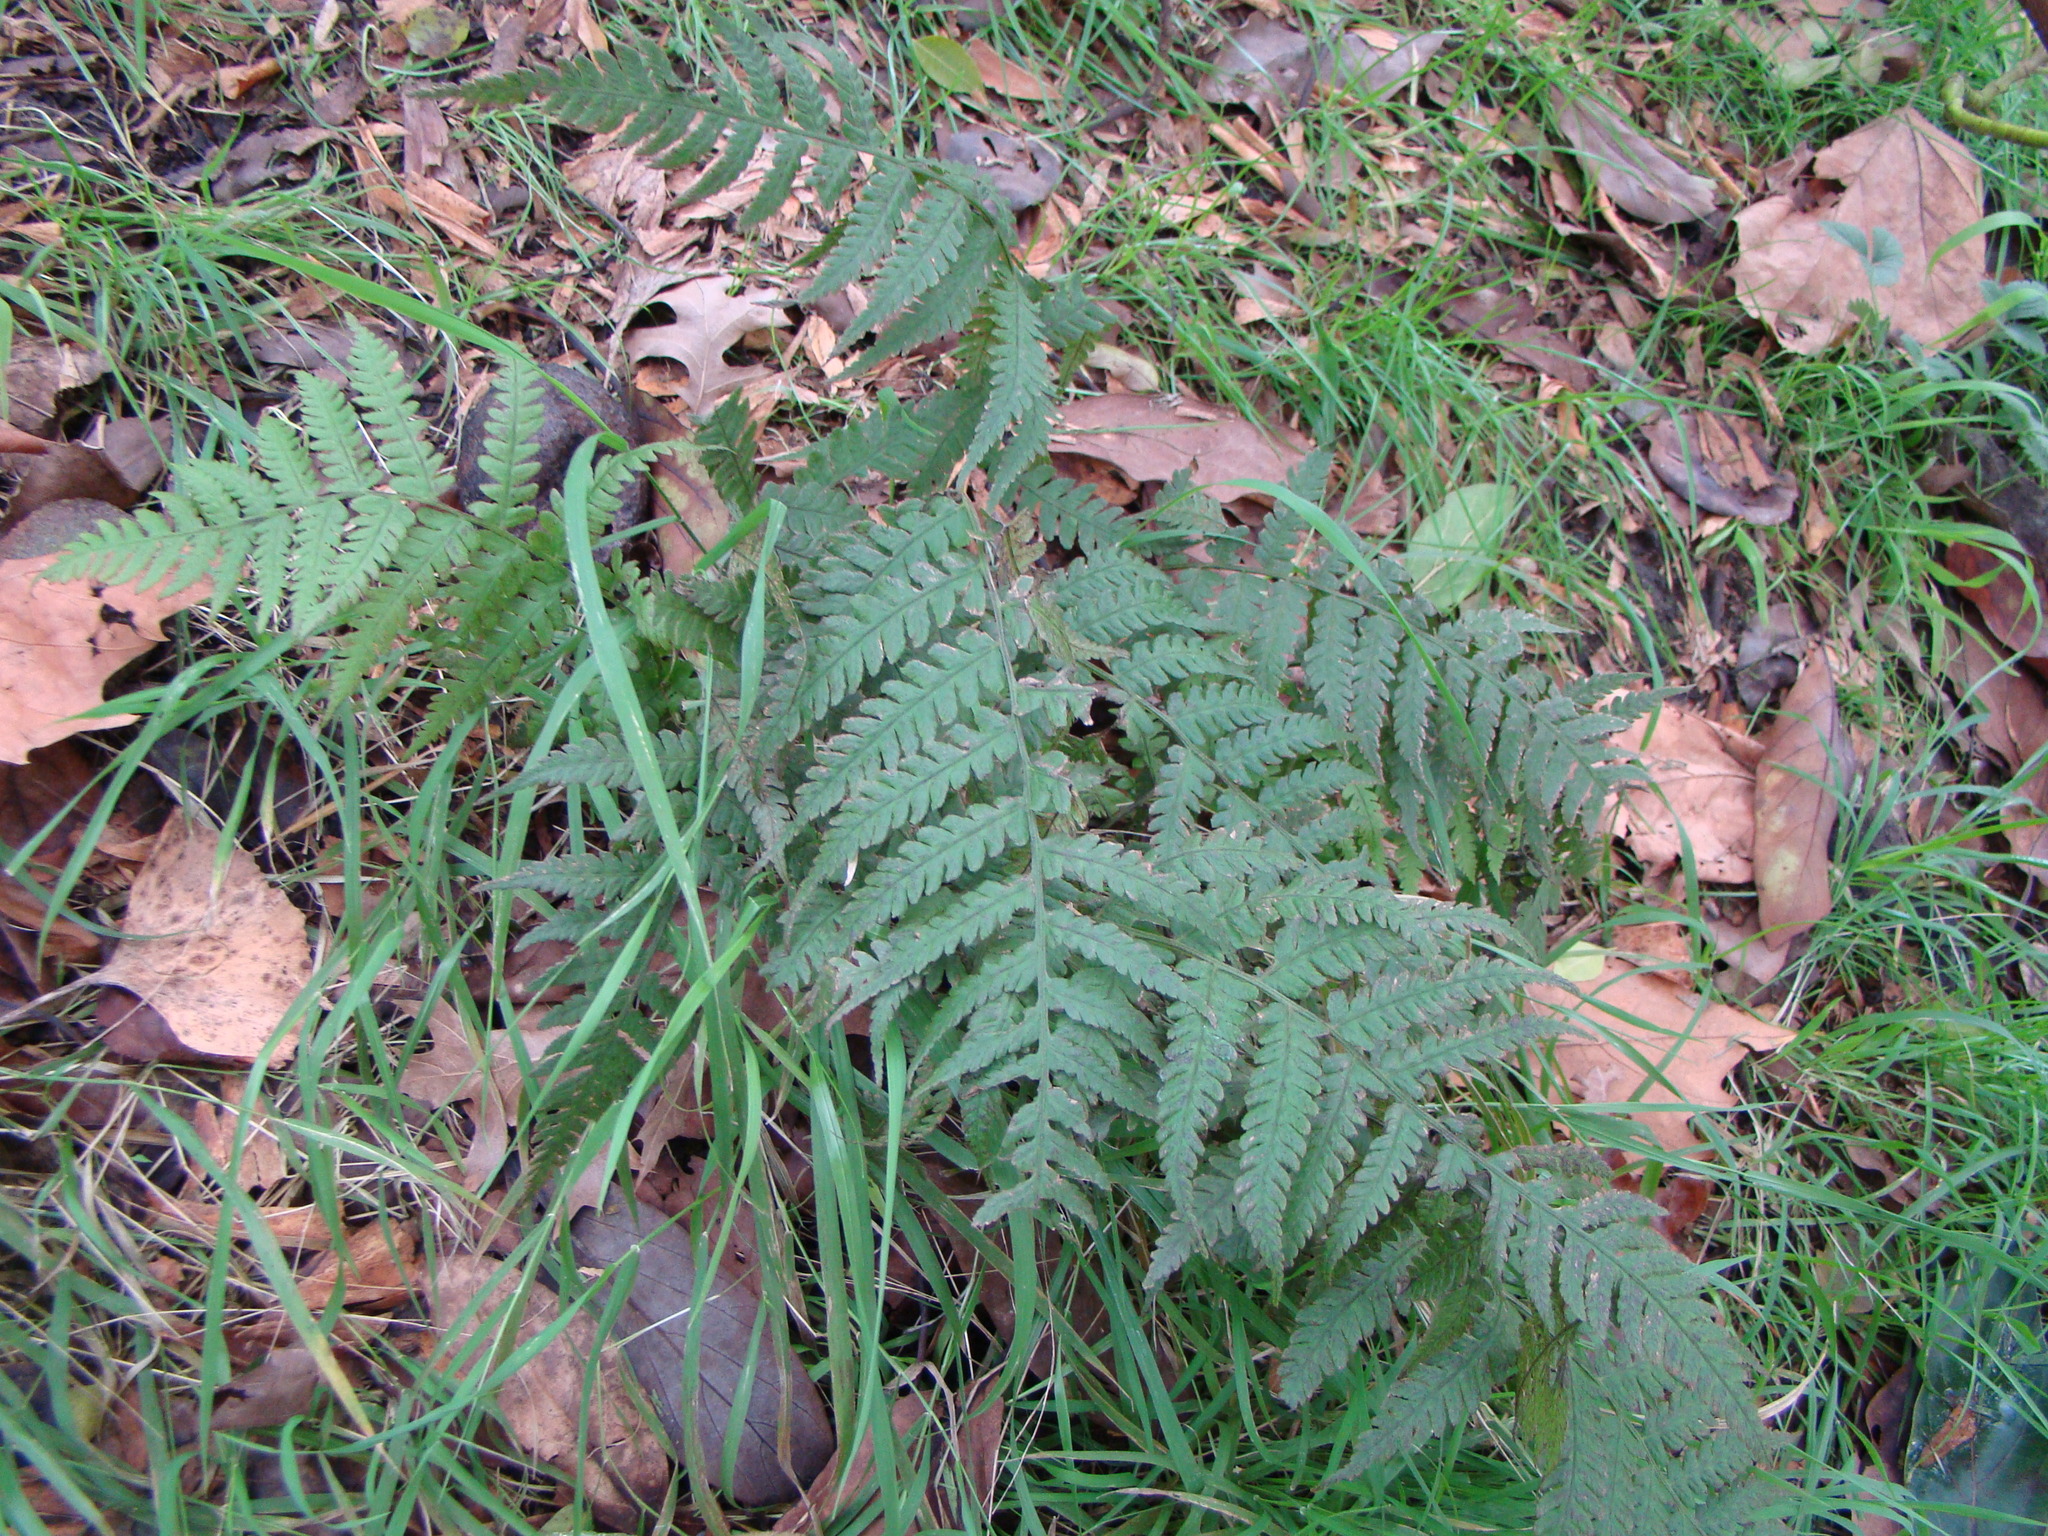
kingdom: Plantae
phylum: Tracheophyta
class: Polypodiopsida
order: Polypodiales
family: Athyriaceae
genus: Diplazium
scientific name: Diplazium congruum
